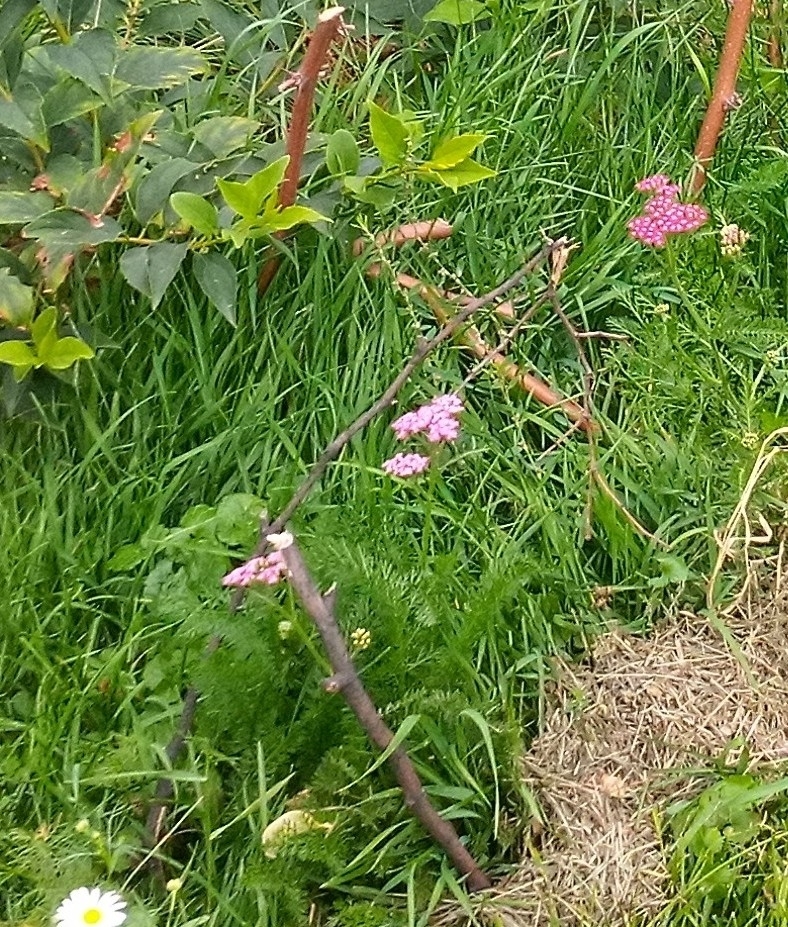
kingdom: Plantae
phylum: Tracheophyta
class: Magnoliopsida
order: Asterales
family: Asteraceae
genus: Achillea
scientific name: Achillea millefolium
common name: Yarrow
